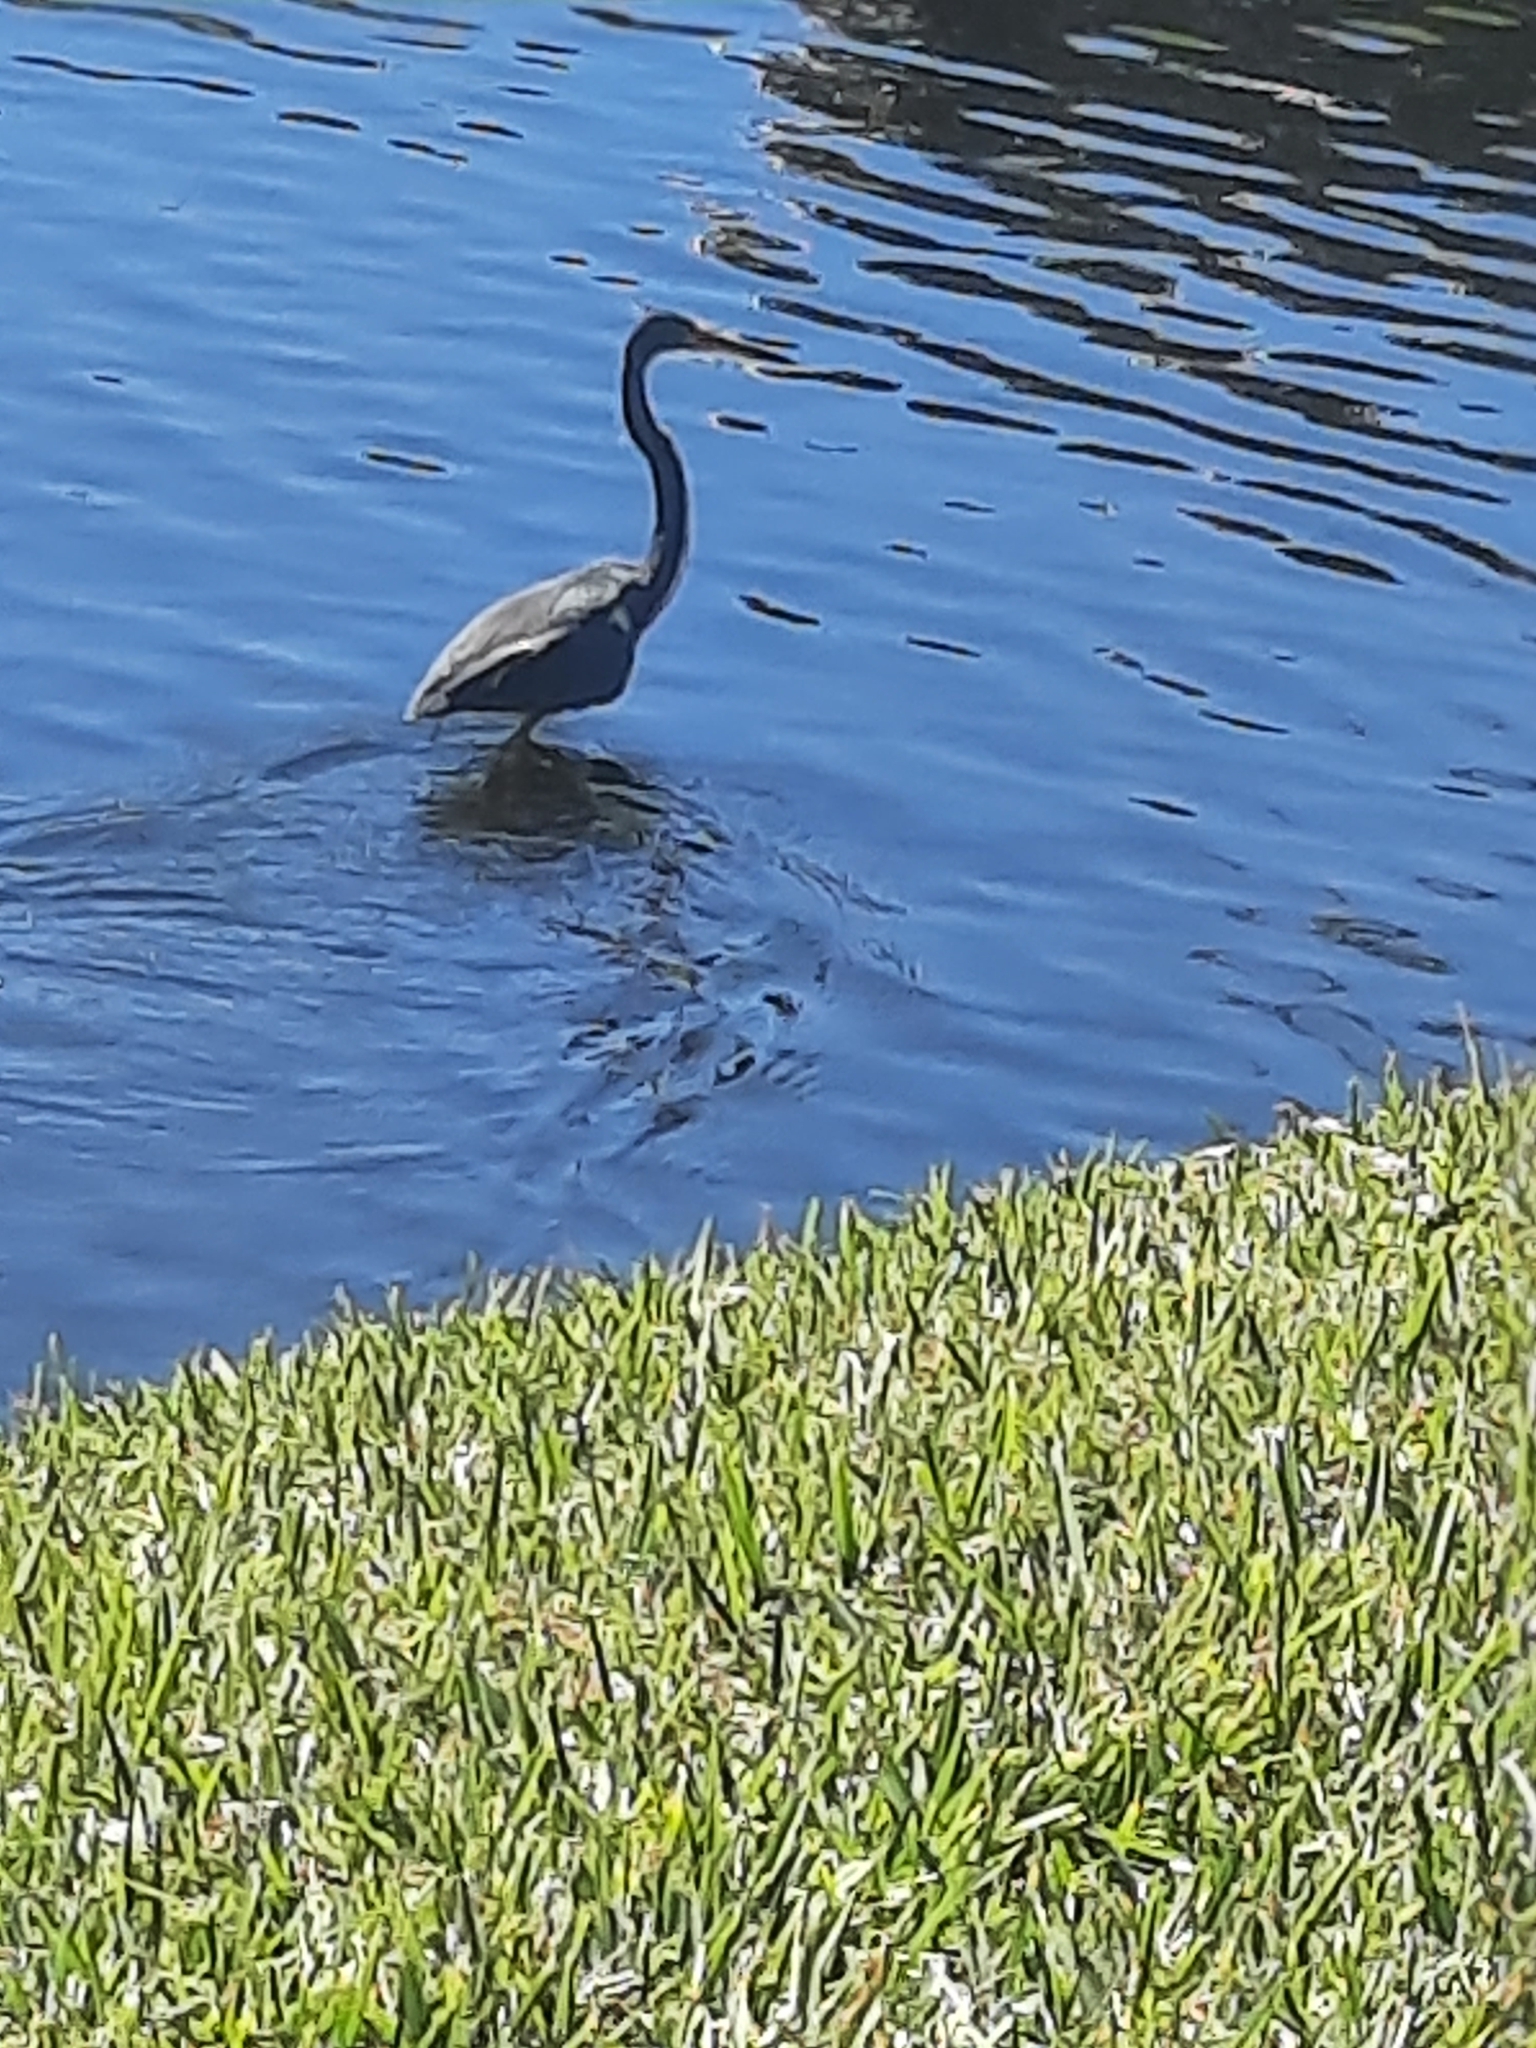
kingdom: Animalia
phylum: Chordata
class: Aves
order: Pelecaniformes
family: Ardeidae
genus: Egretta
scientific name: Egretta tricolor
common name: Tricolored heron
